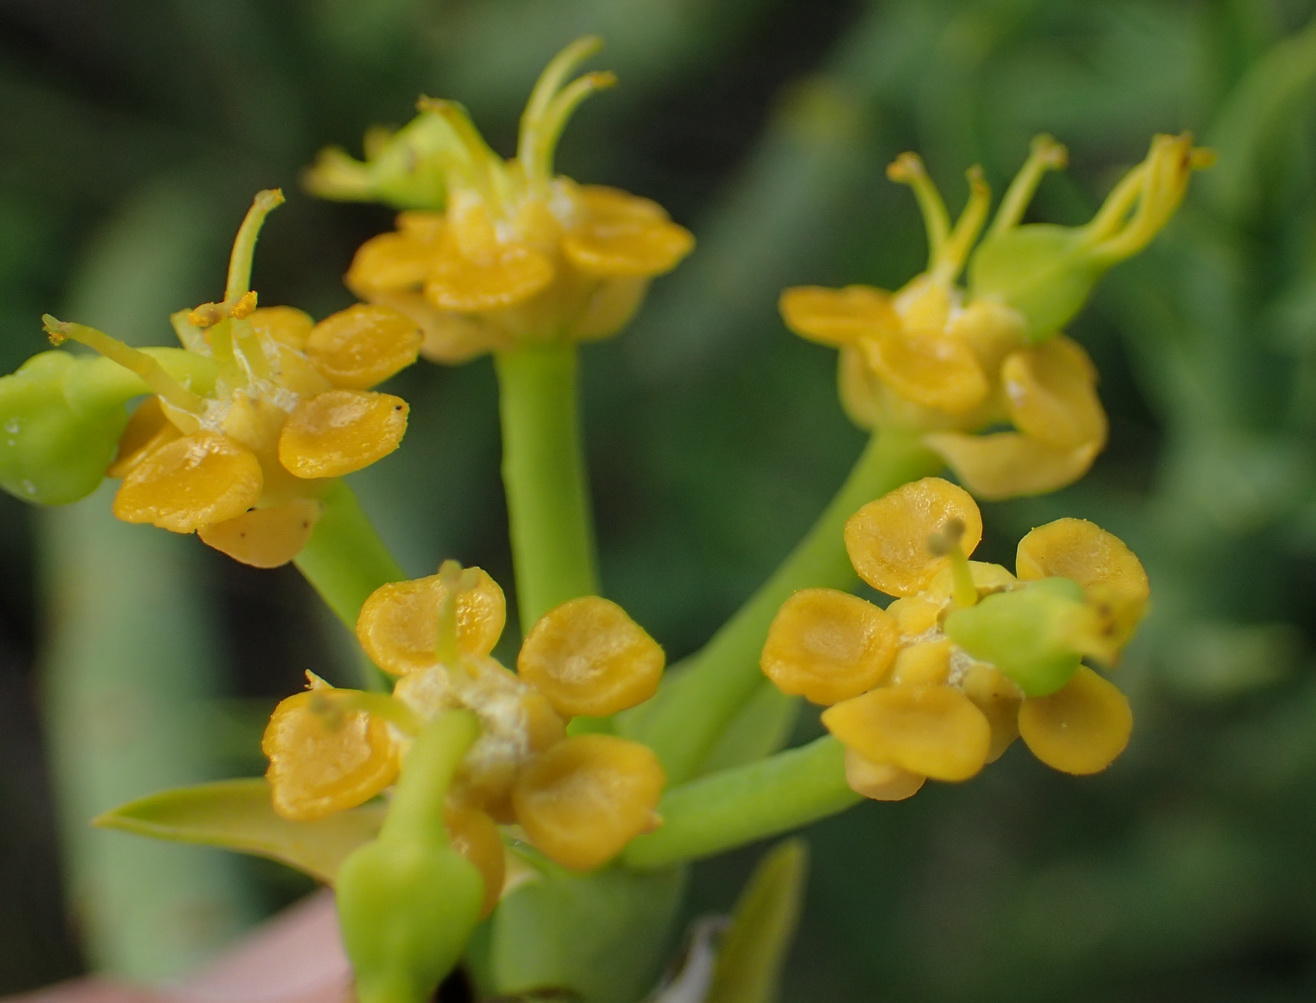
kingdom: Plantae
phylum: Tracheophyta
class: Magnoliopsida
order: Malpighiales
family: Euphorbiaceae
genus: Euphorbia
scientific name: Euphorbia mauritanica
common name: Jackal's-food
